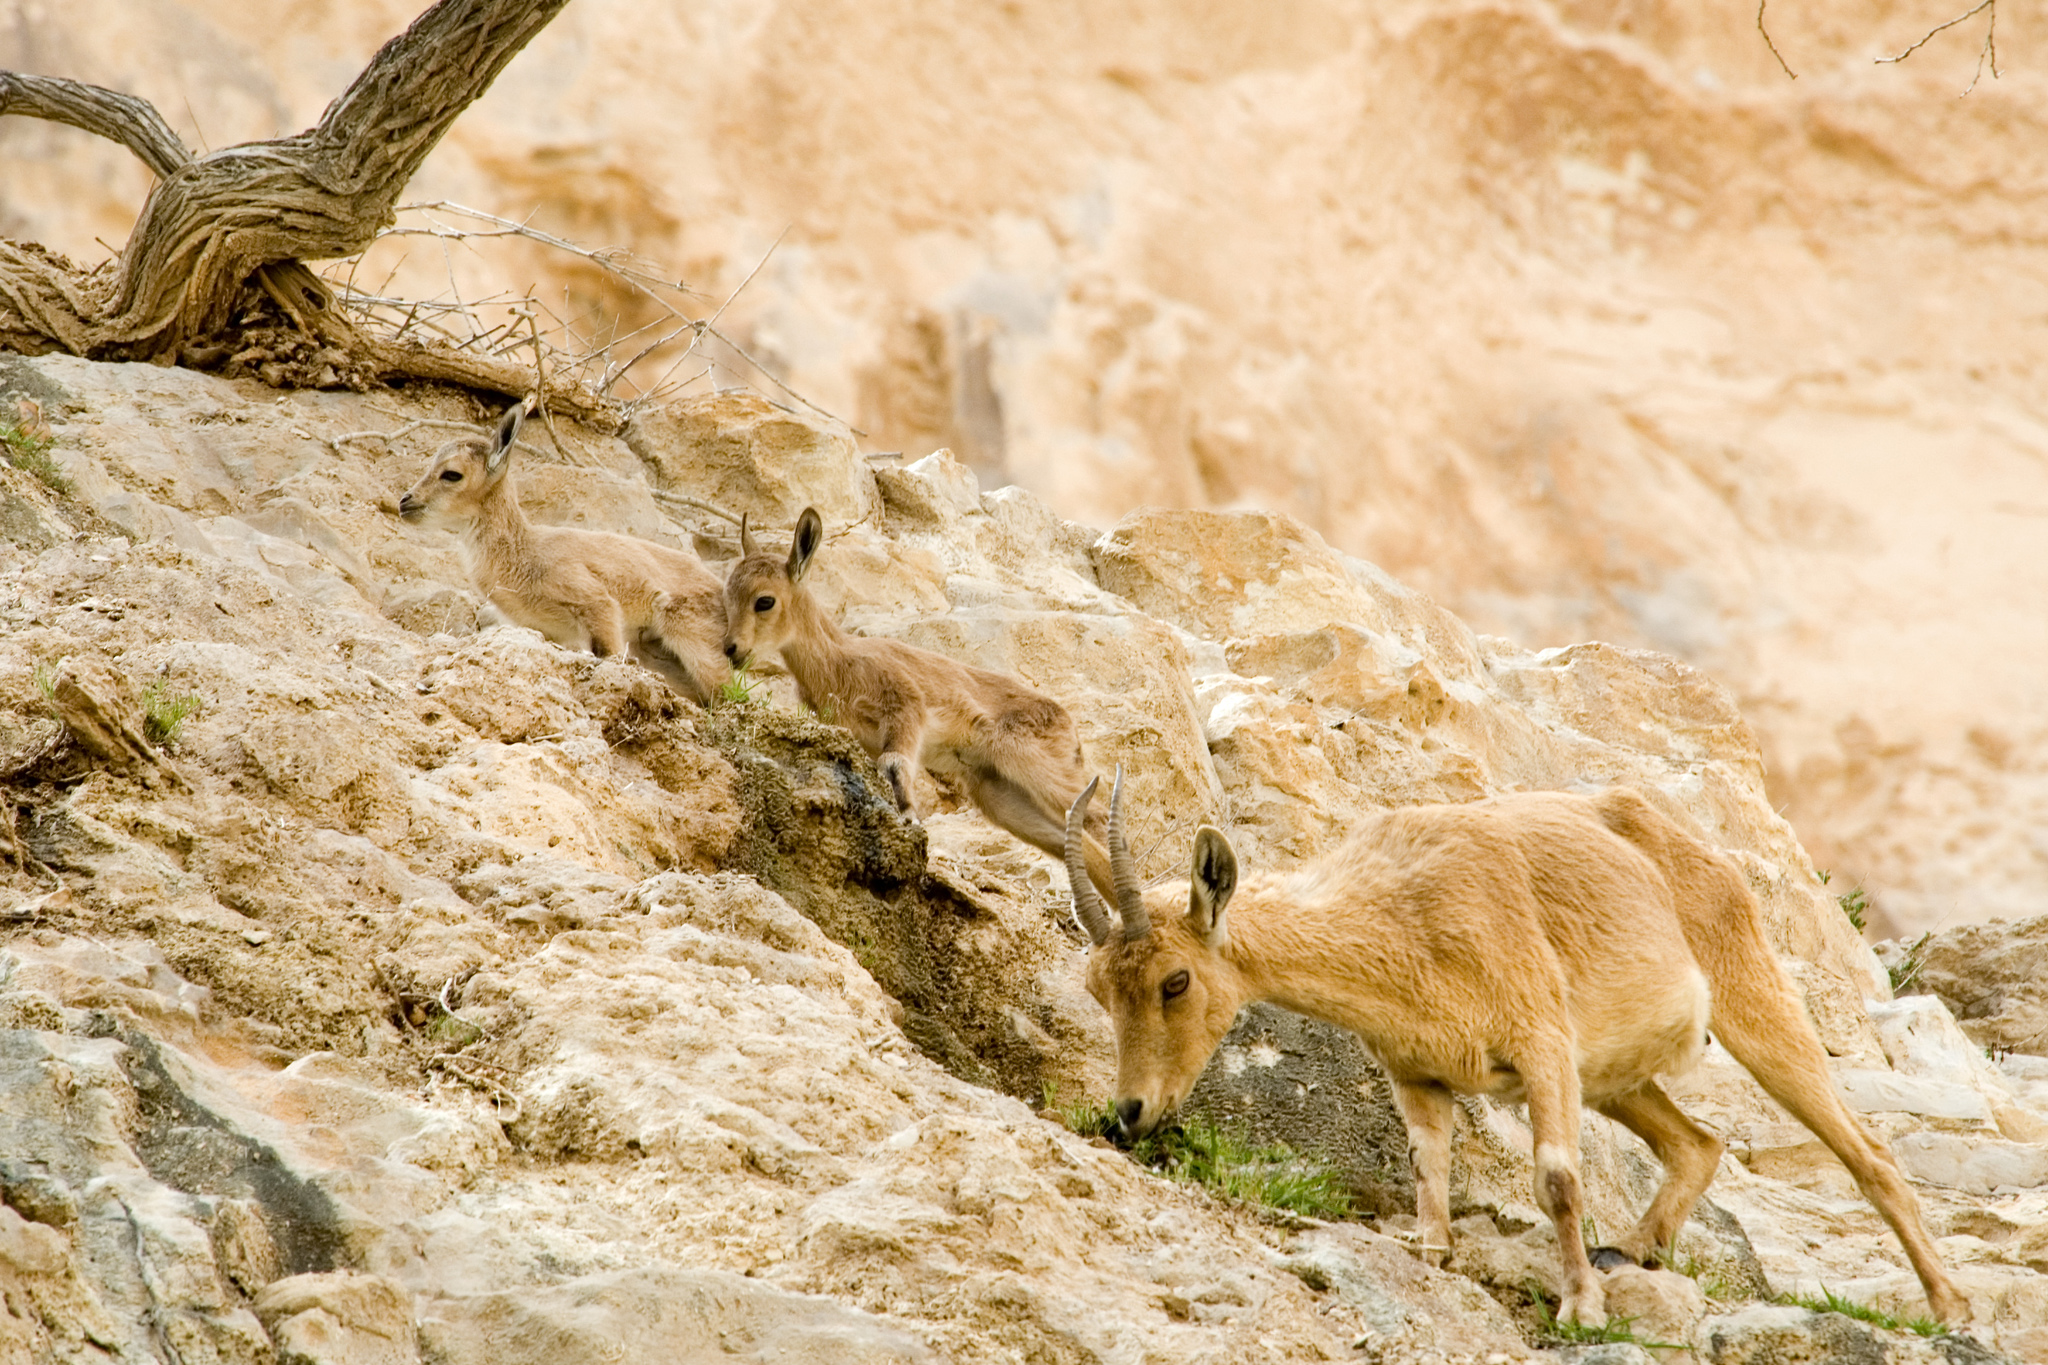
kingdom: Animalia
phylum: Chordata
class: Mammalia
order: Artiodactyla
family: Bovidae
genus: Capra
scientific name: Capra nubiana
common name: Nubian ibex
